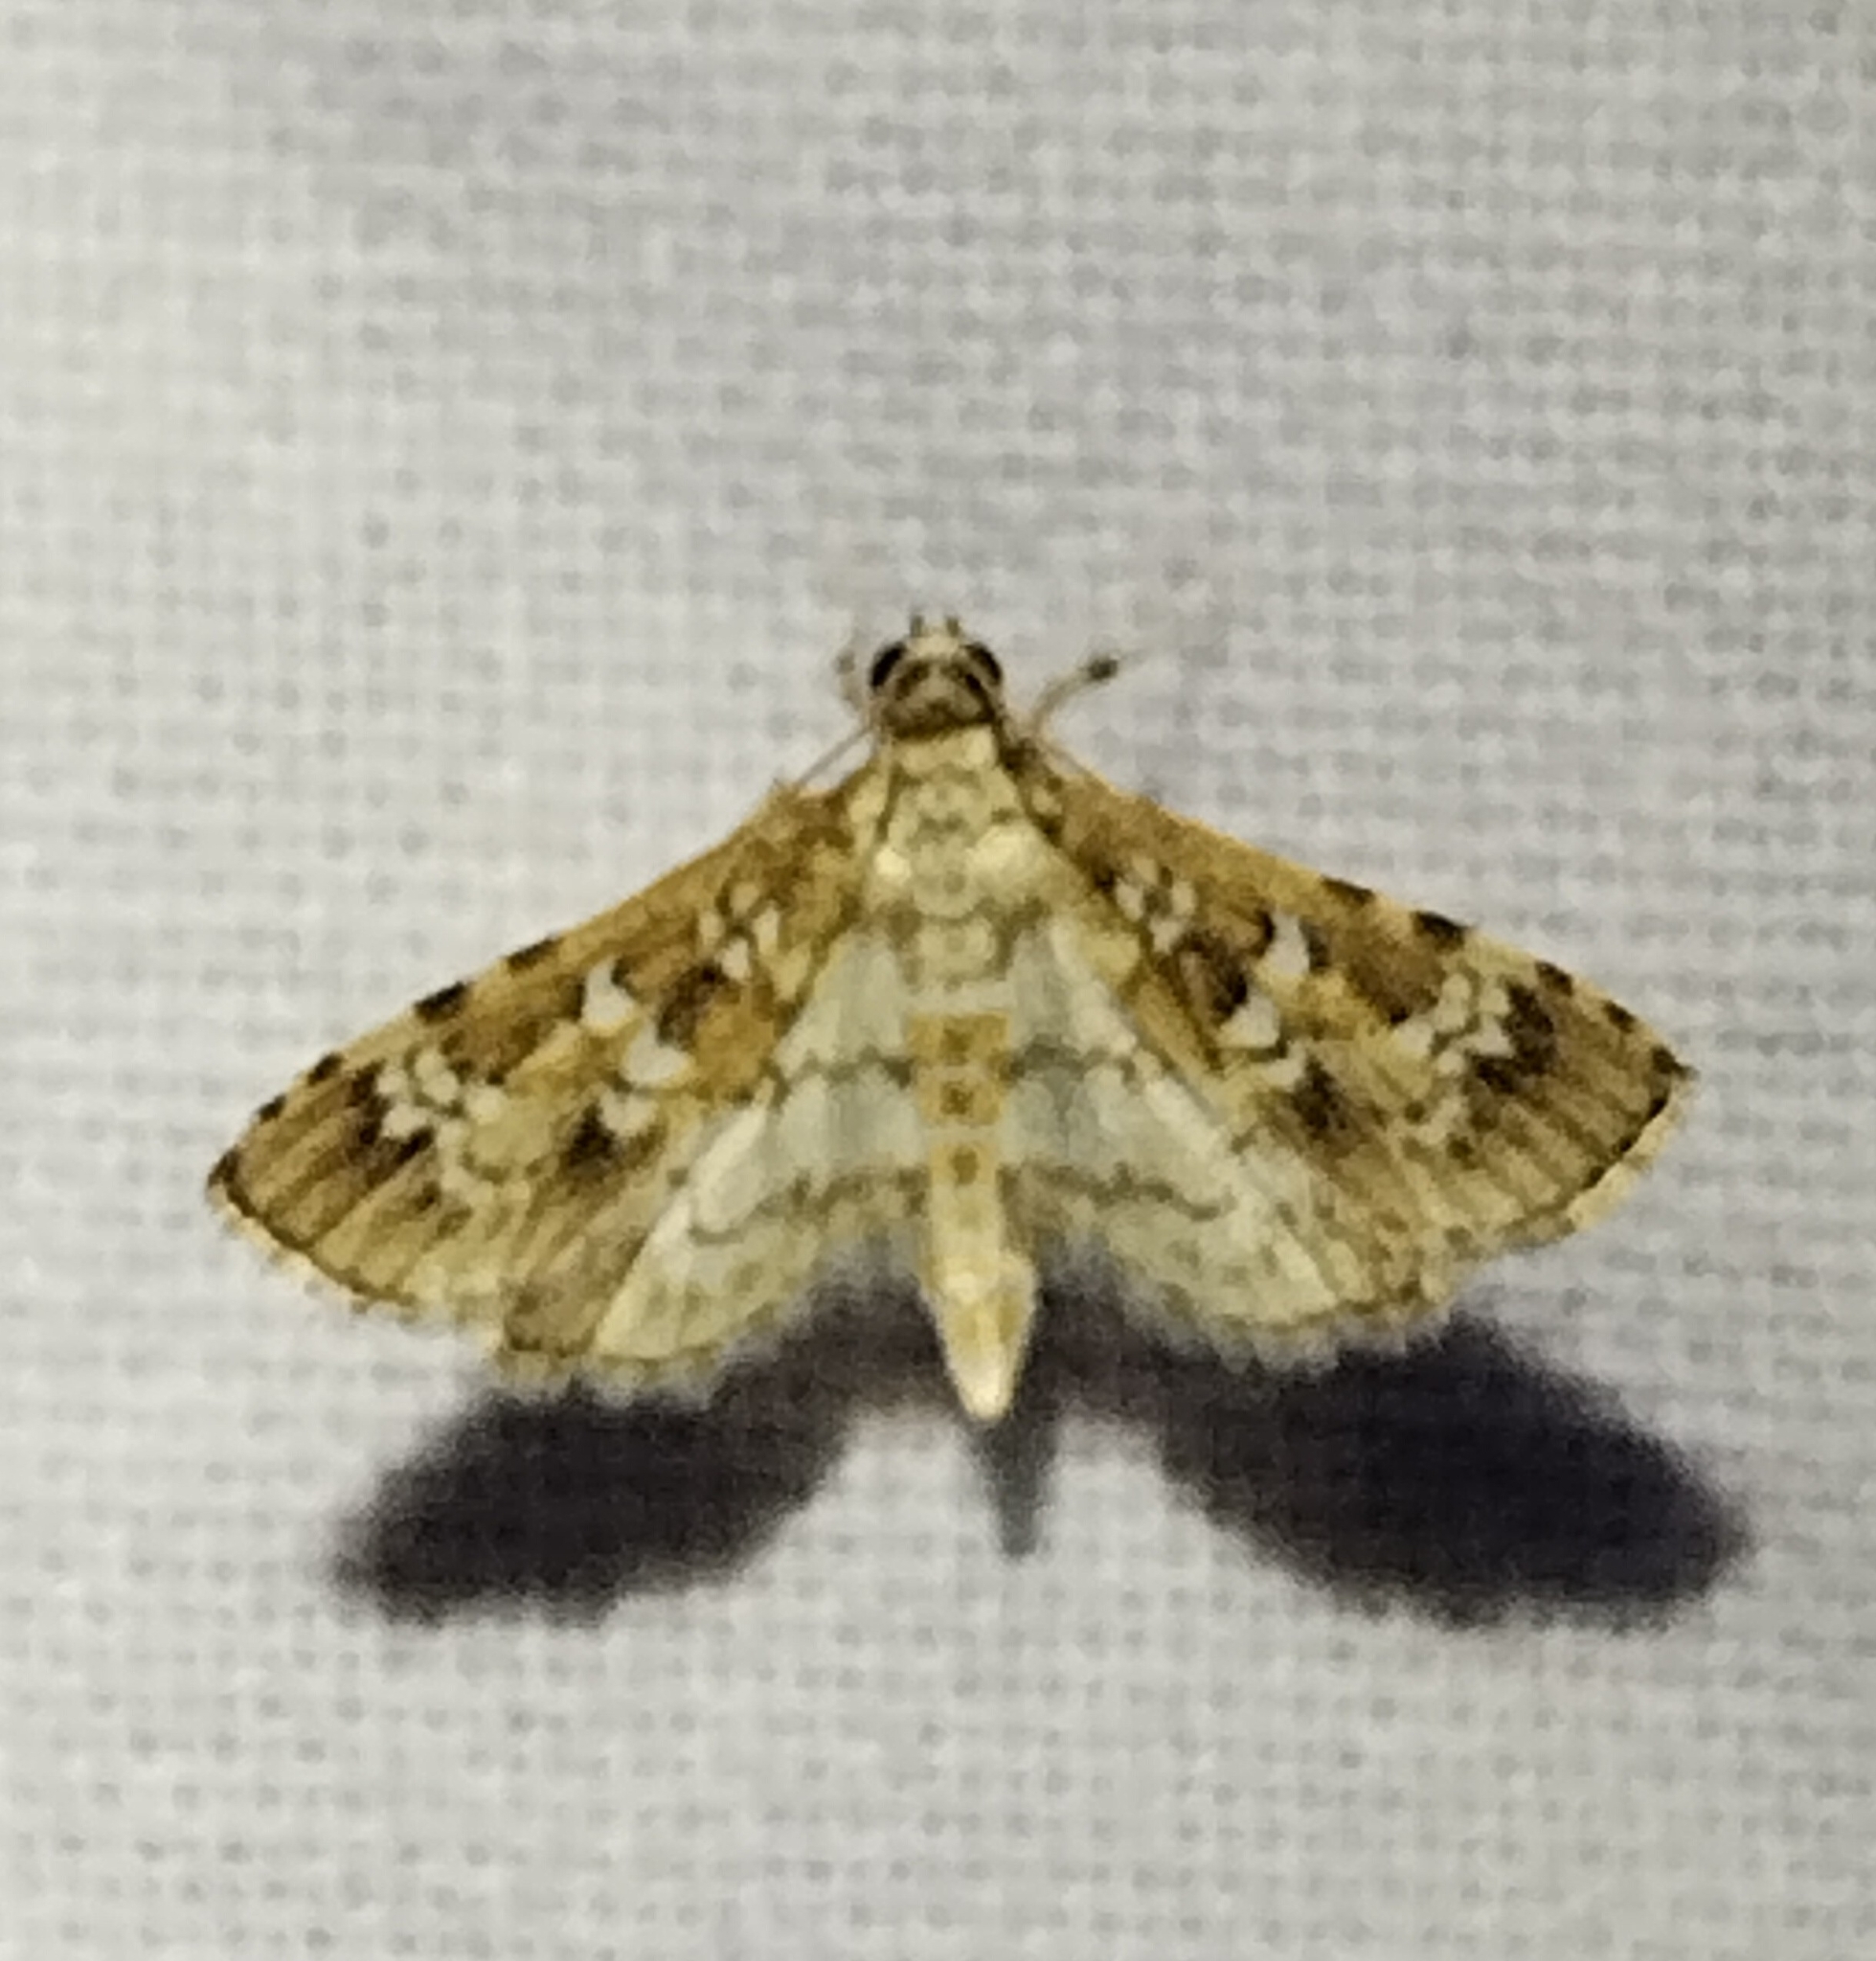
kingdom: Animalia
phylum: Arthropoda
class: Insecta
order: Lepidoptera
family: Crambidae
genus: Samea
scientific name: Samea multiplicalis
